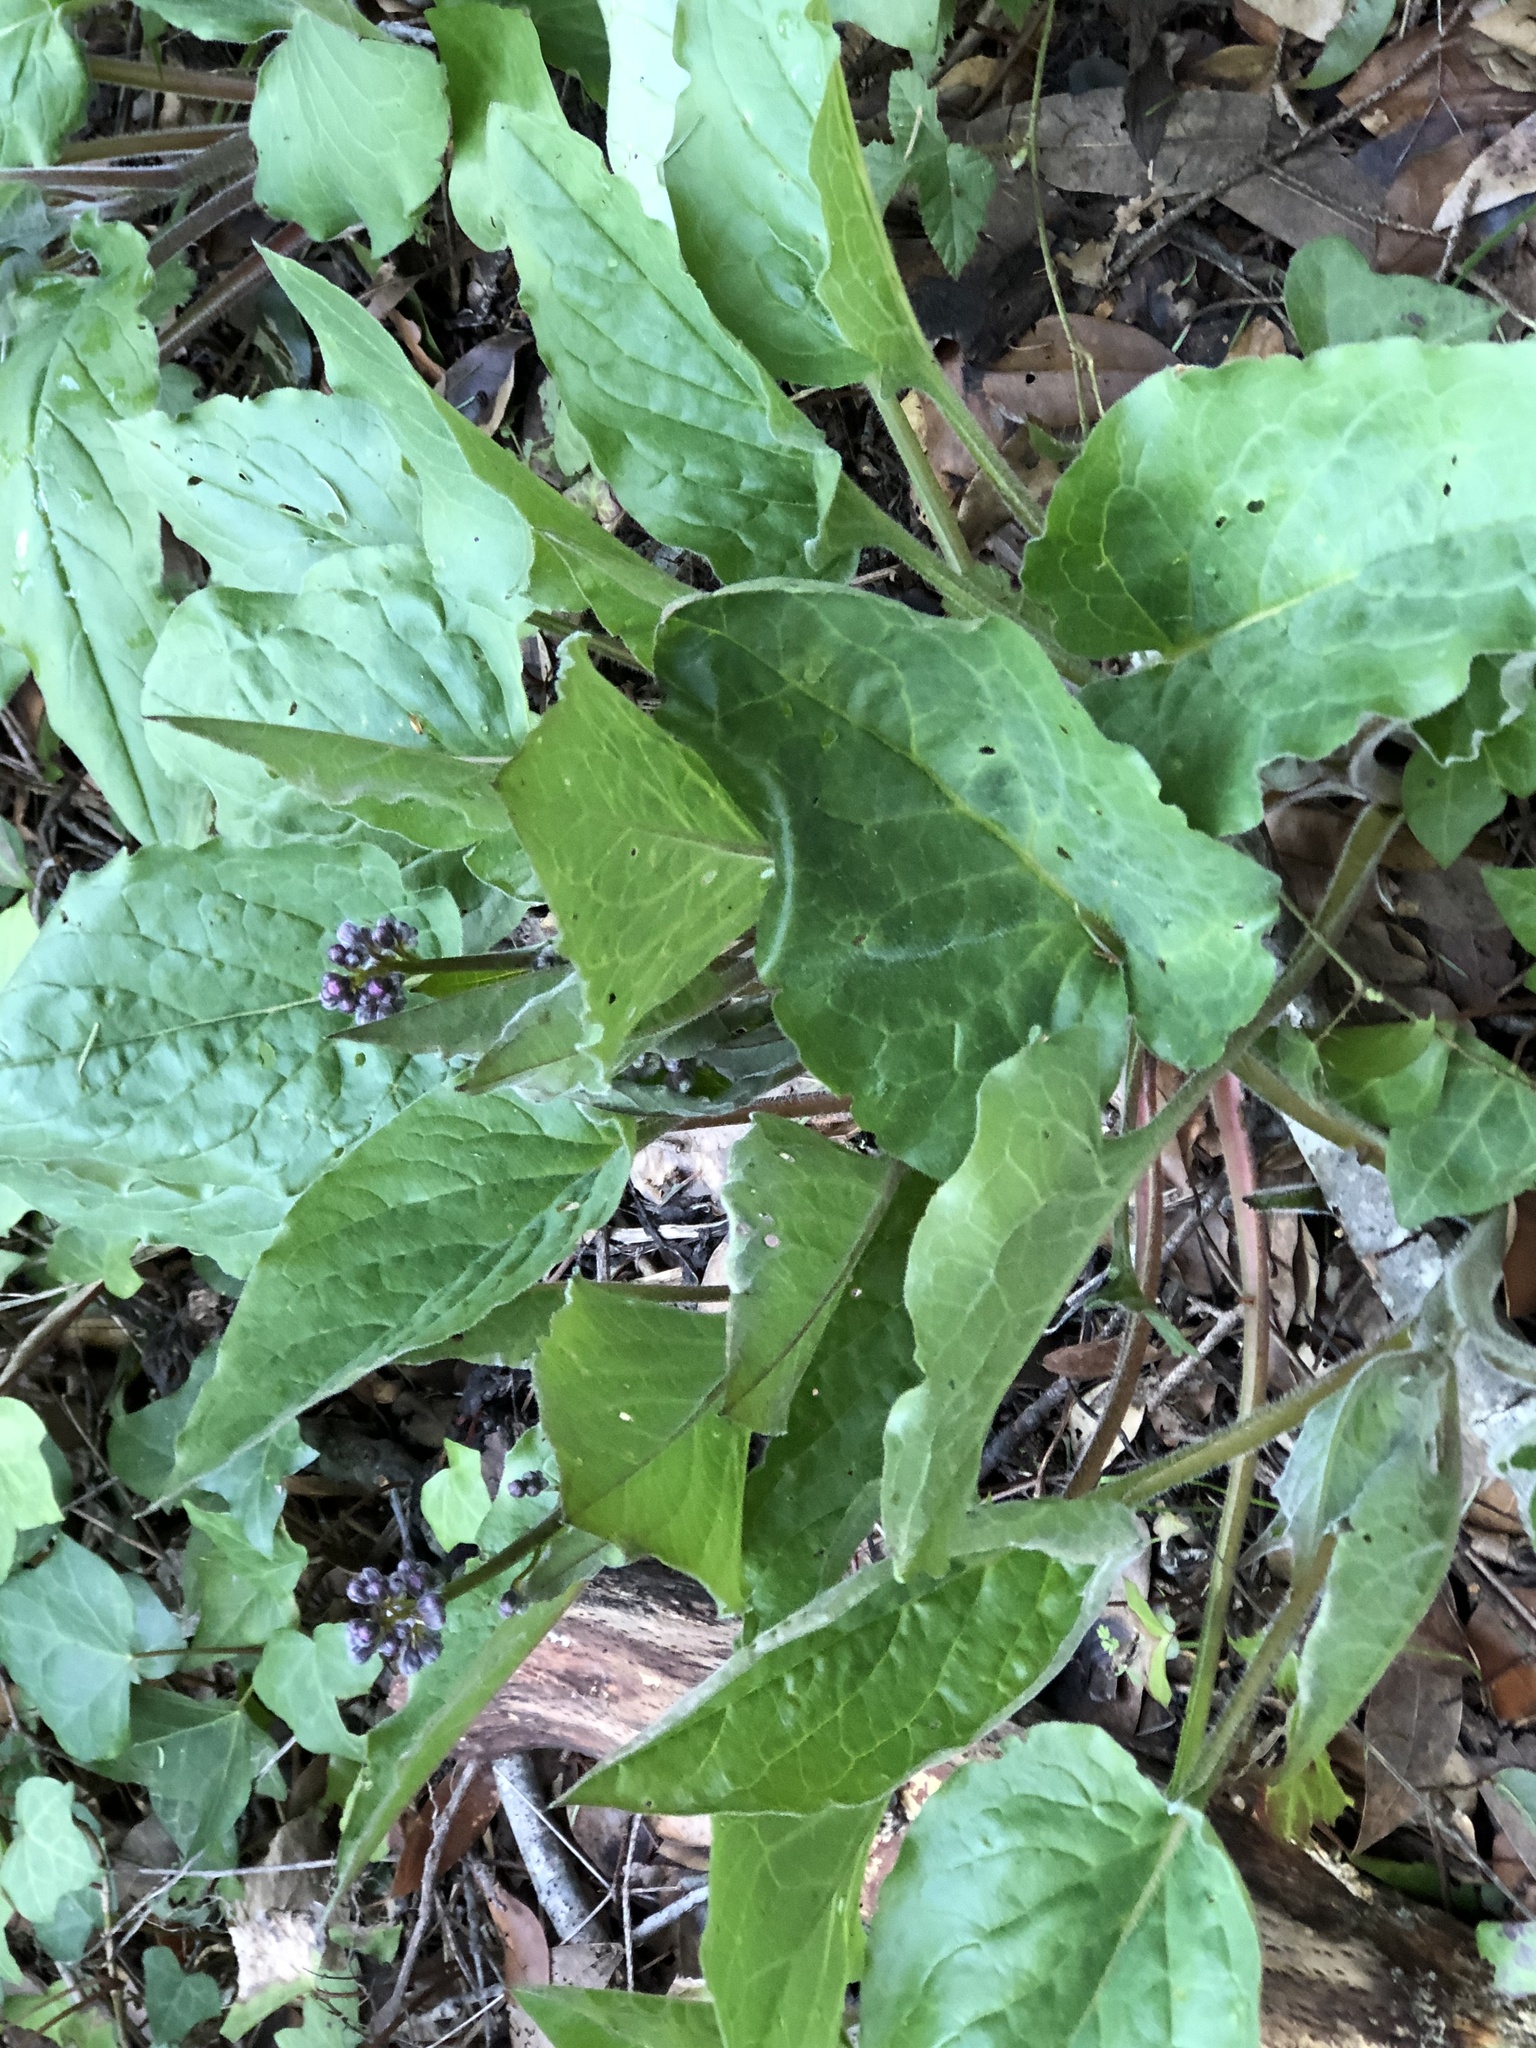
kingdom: Plantae
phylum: Tracheophyta
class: Magnoliopsida
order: Boraginales
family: Boraginaceae
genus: Adelinia
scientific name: Adelinia grande
